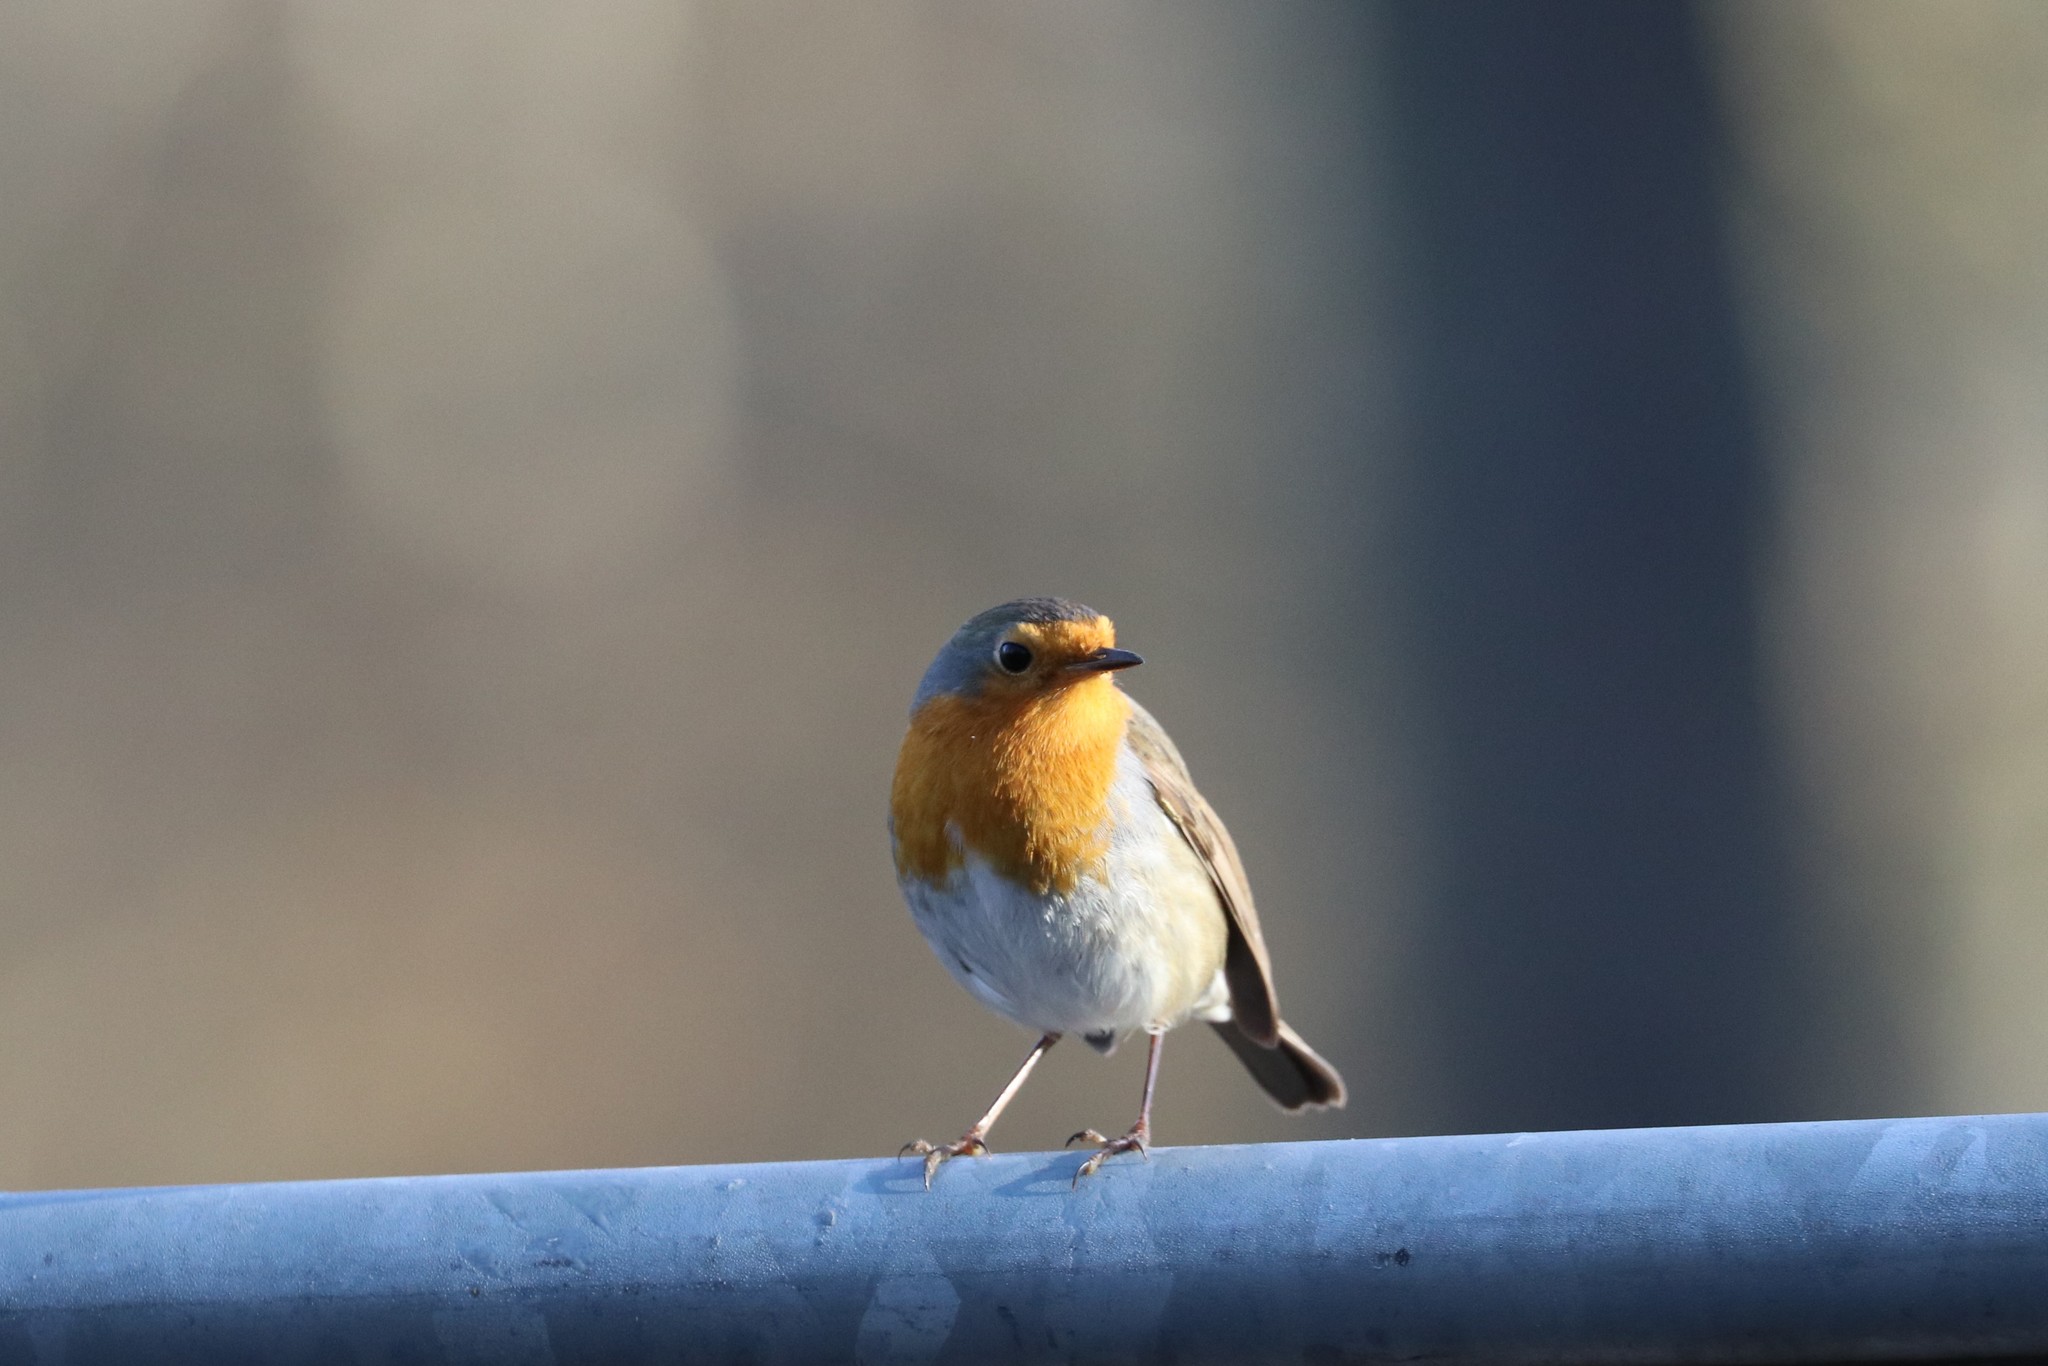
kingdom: Animalia
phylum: Chordata
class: Aves
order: Passeriformes
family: Muscicapidae
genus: Erithacus
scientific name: Erithacus rubecula
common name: European robin
